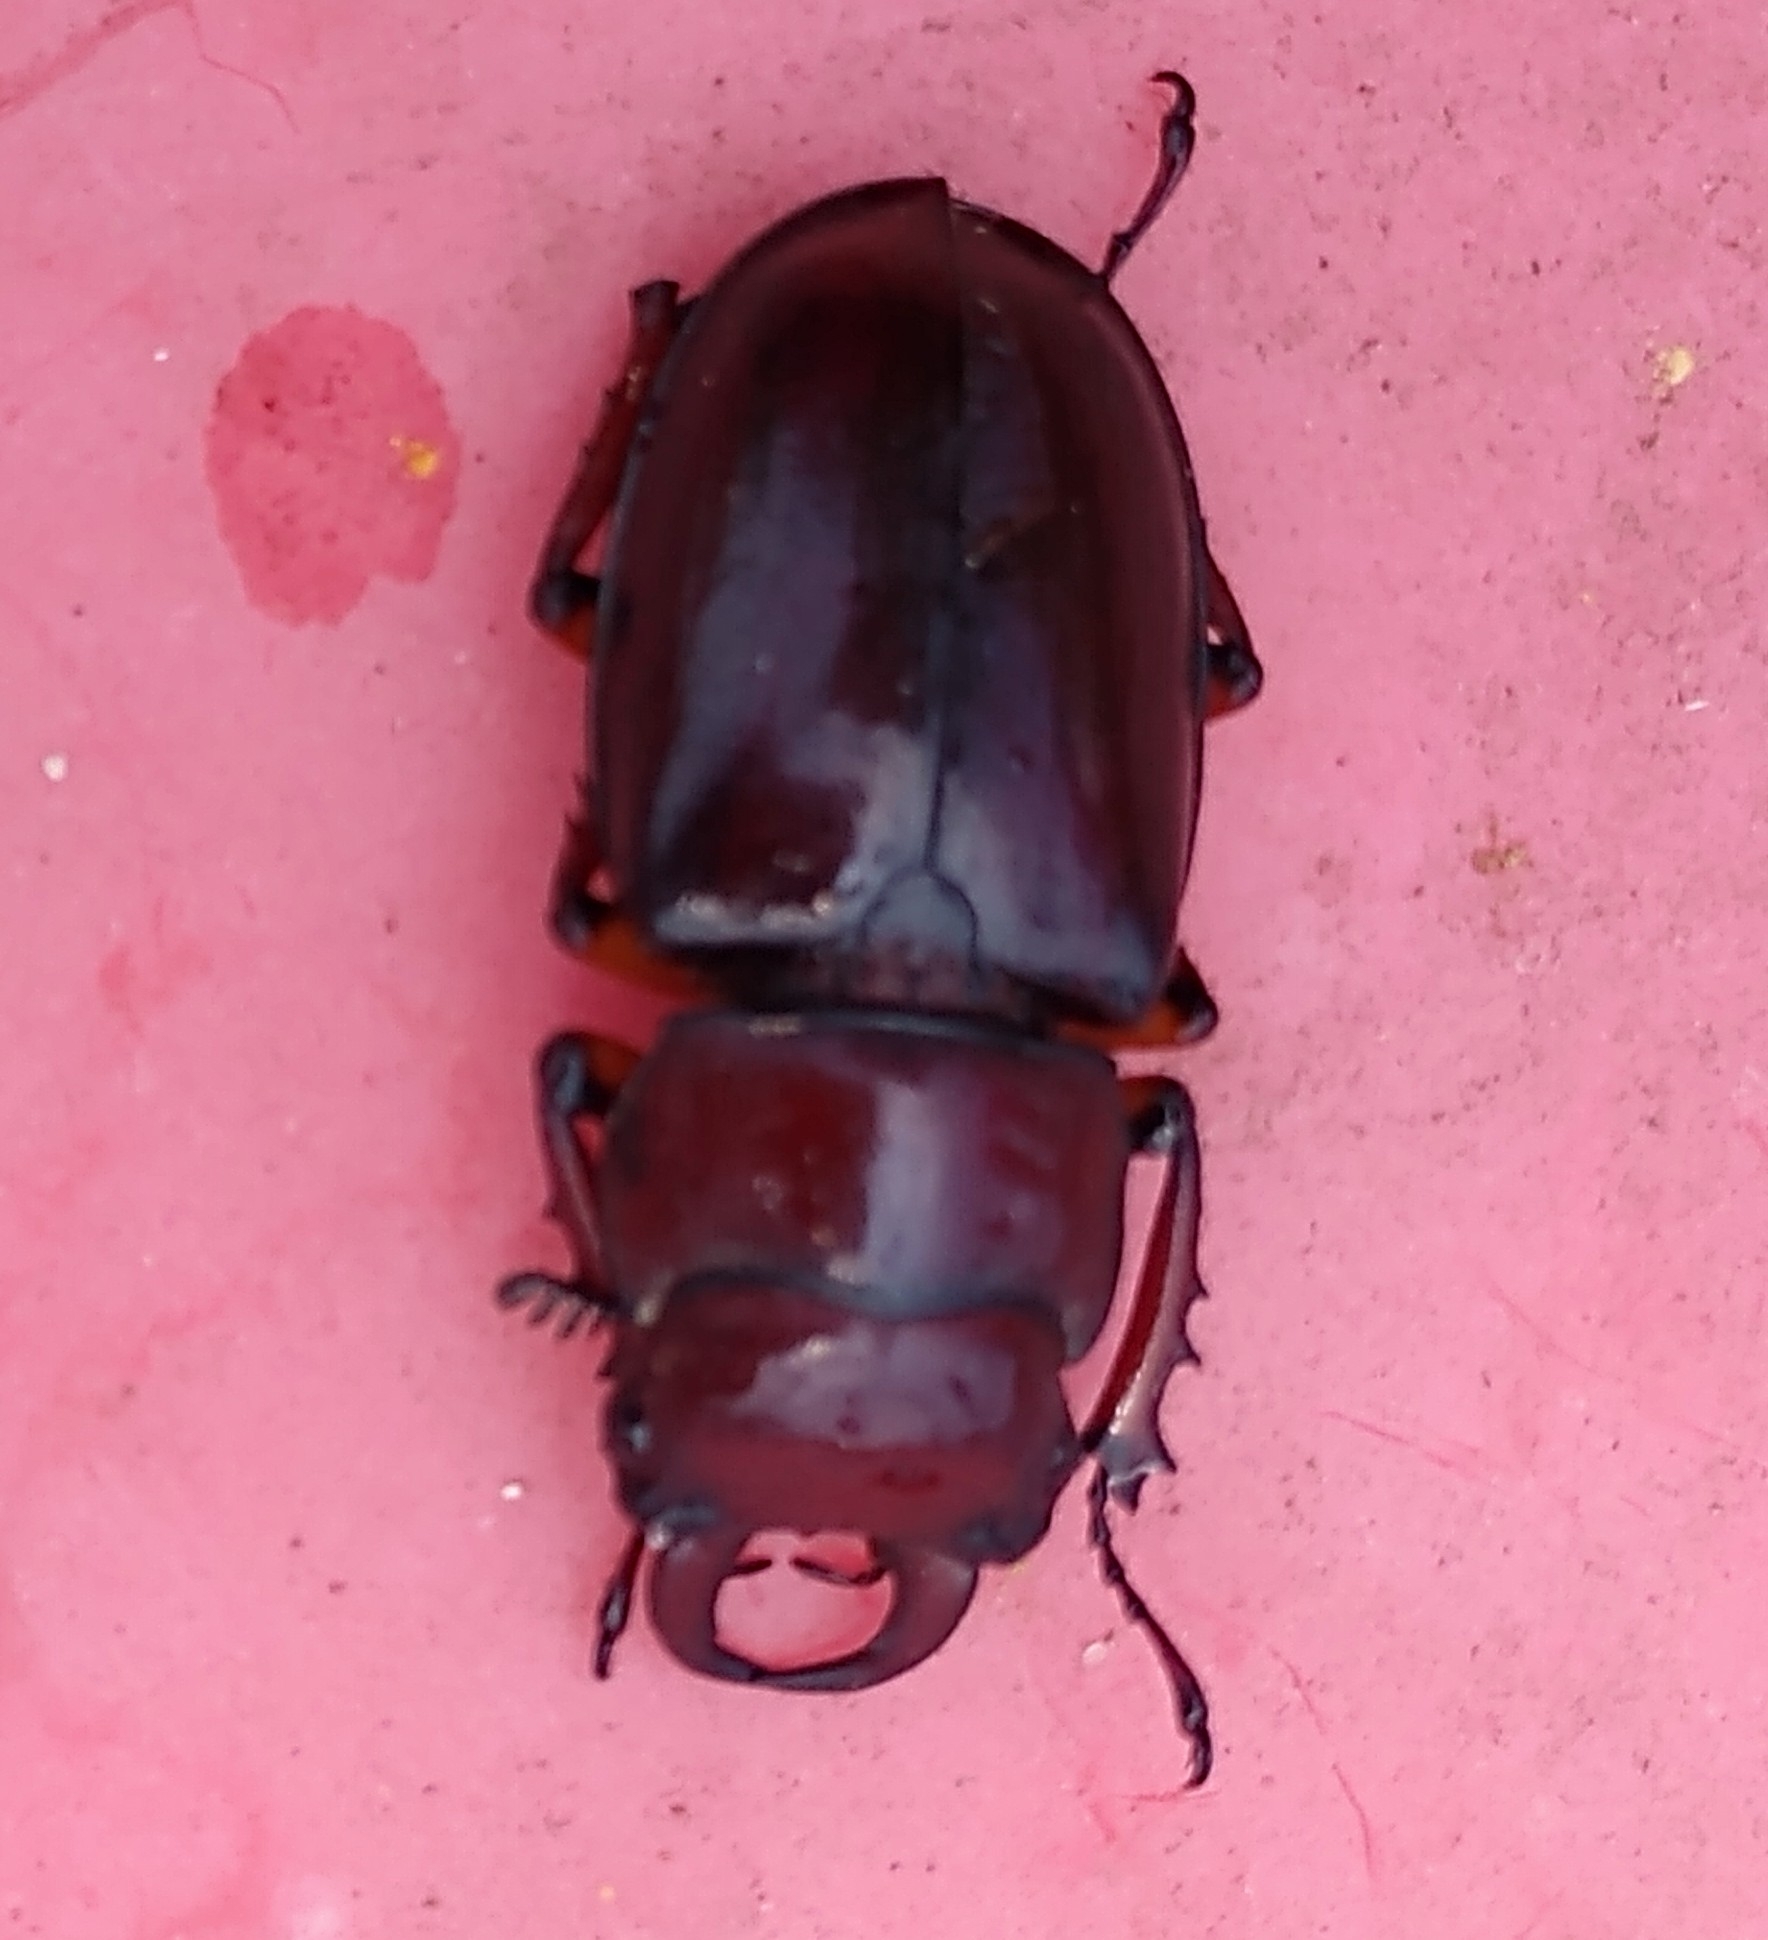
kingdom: Animalia
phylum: Arthropoda
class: Insecta
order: Coleoptera
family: Lucanidae
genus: Lucanus
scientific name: Lucanus capreolus
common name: Stag beetle
